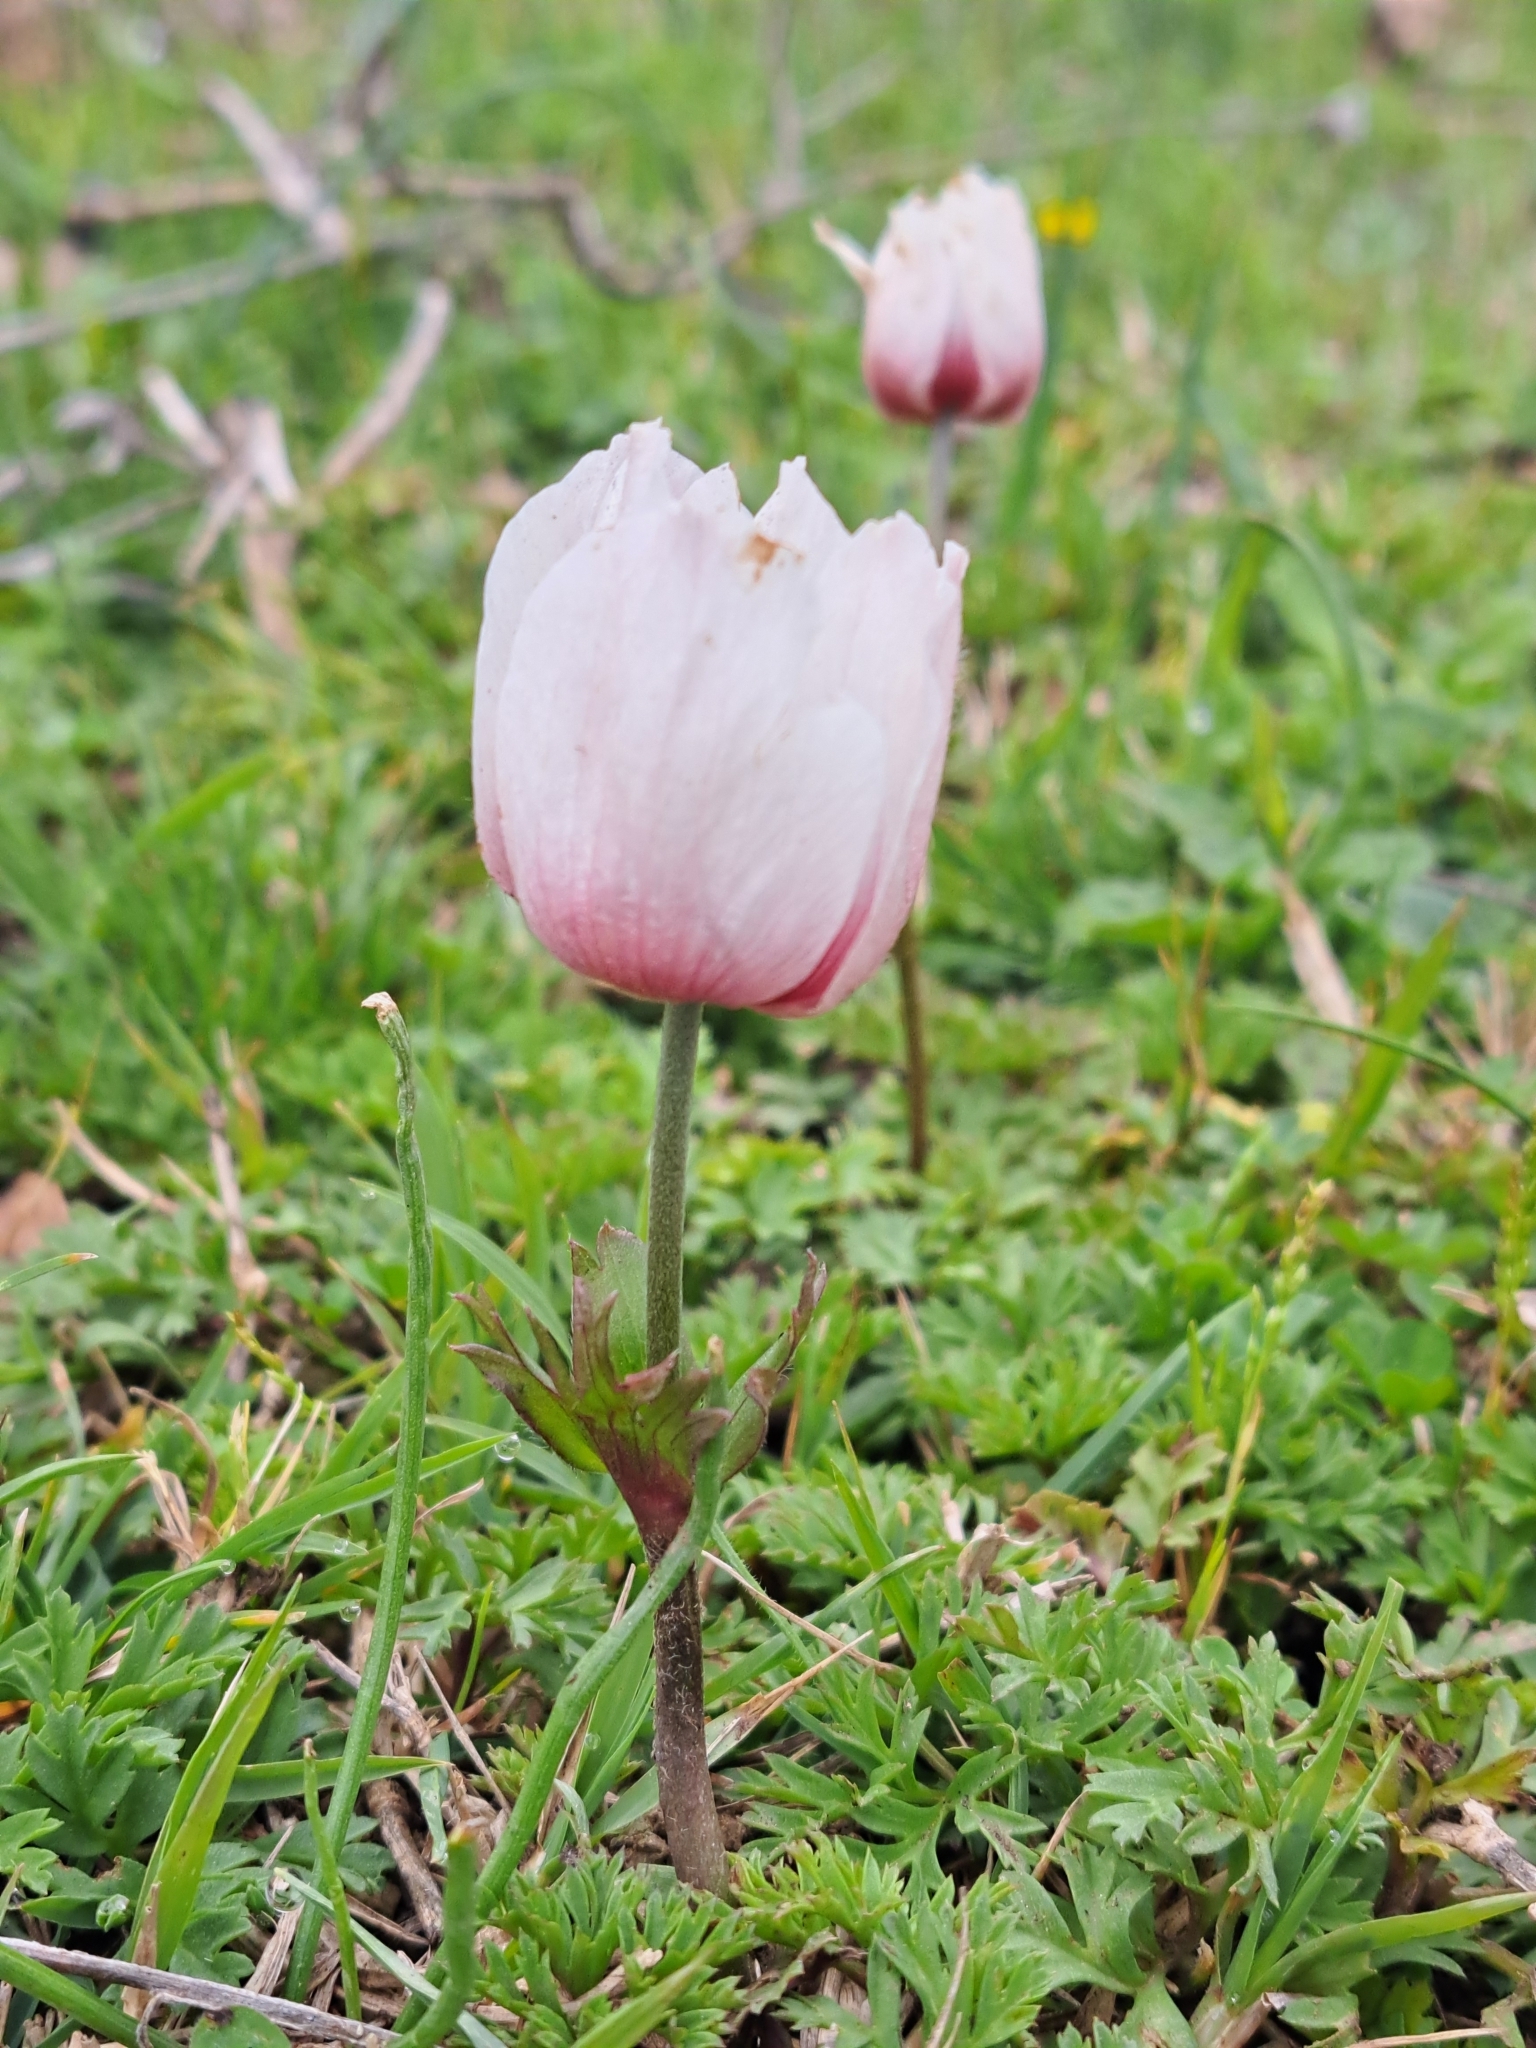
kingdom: Plantae
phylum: Tracheophyta
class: Magnoliopsida
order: Ranunculales
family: Ranunculaceae
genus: Anemone
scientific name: Anemone coronaria
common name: Poppy anemone
